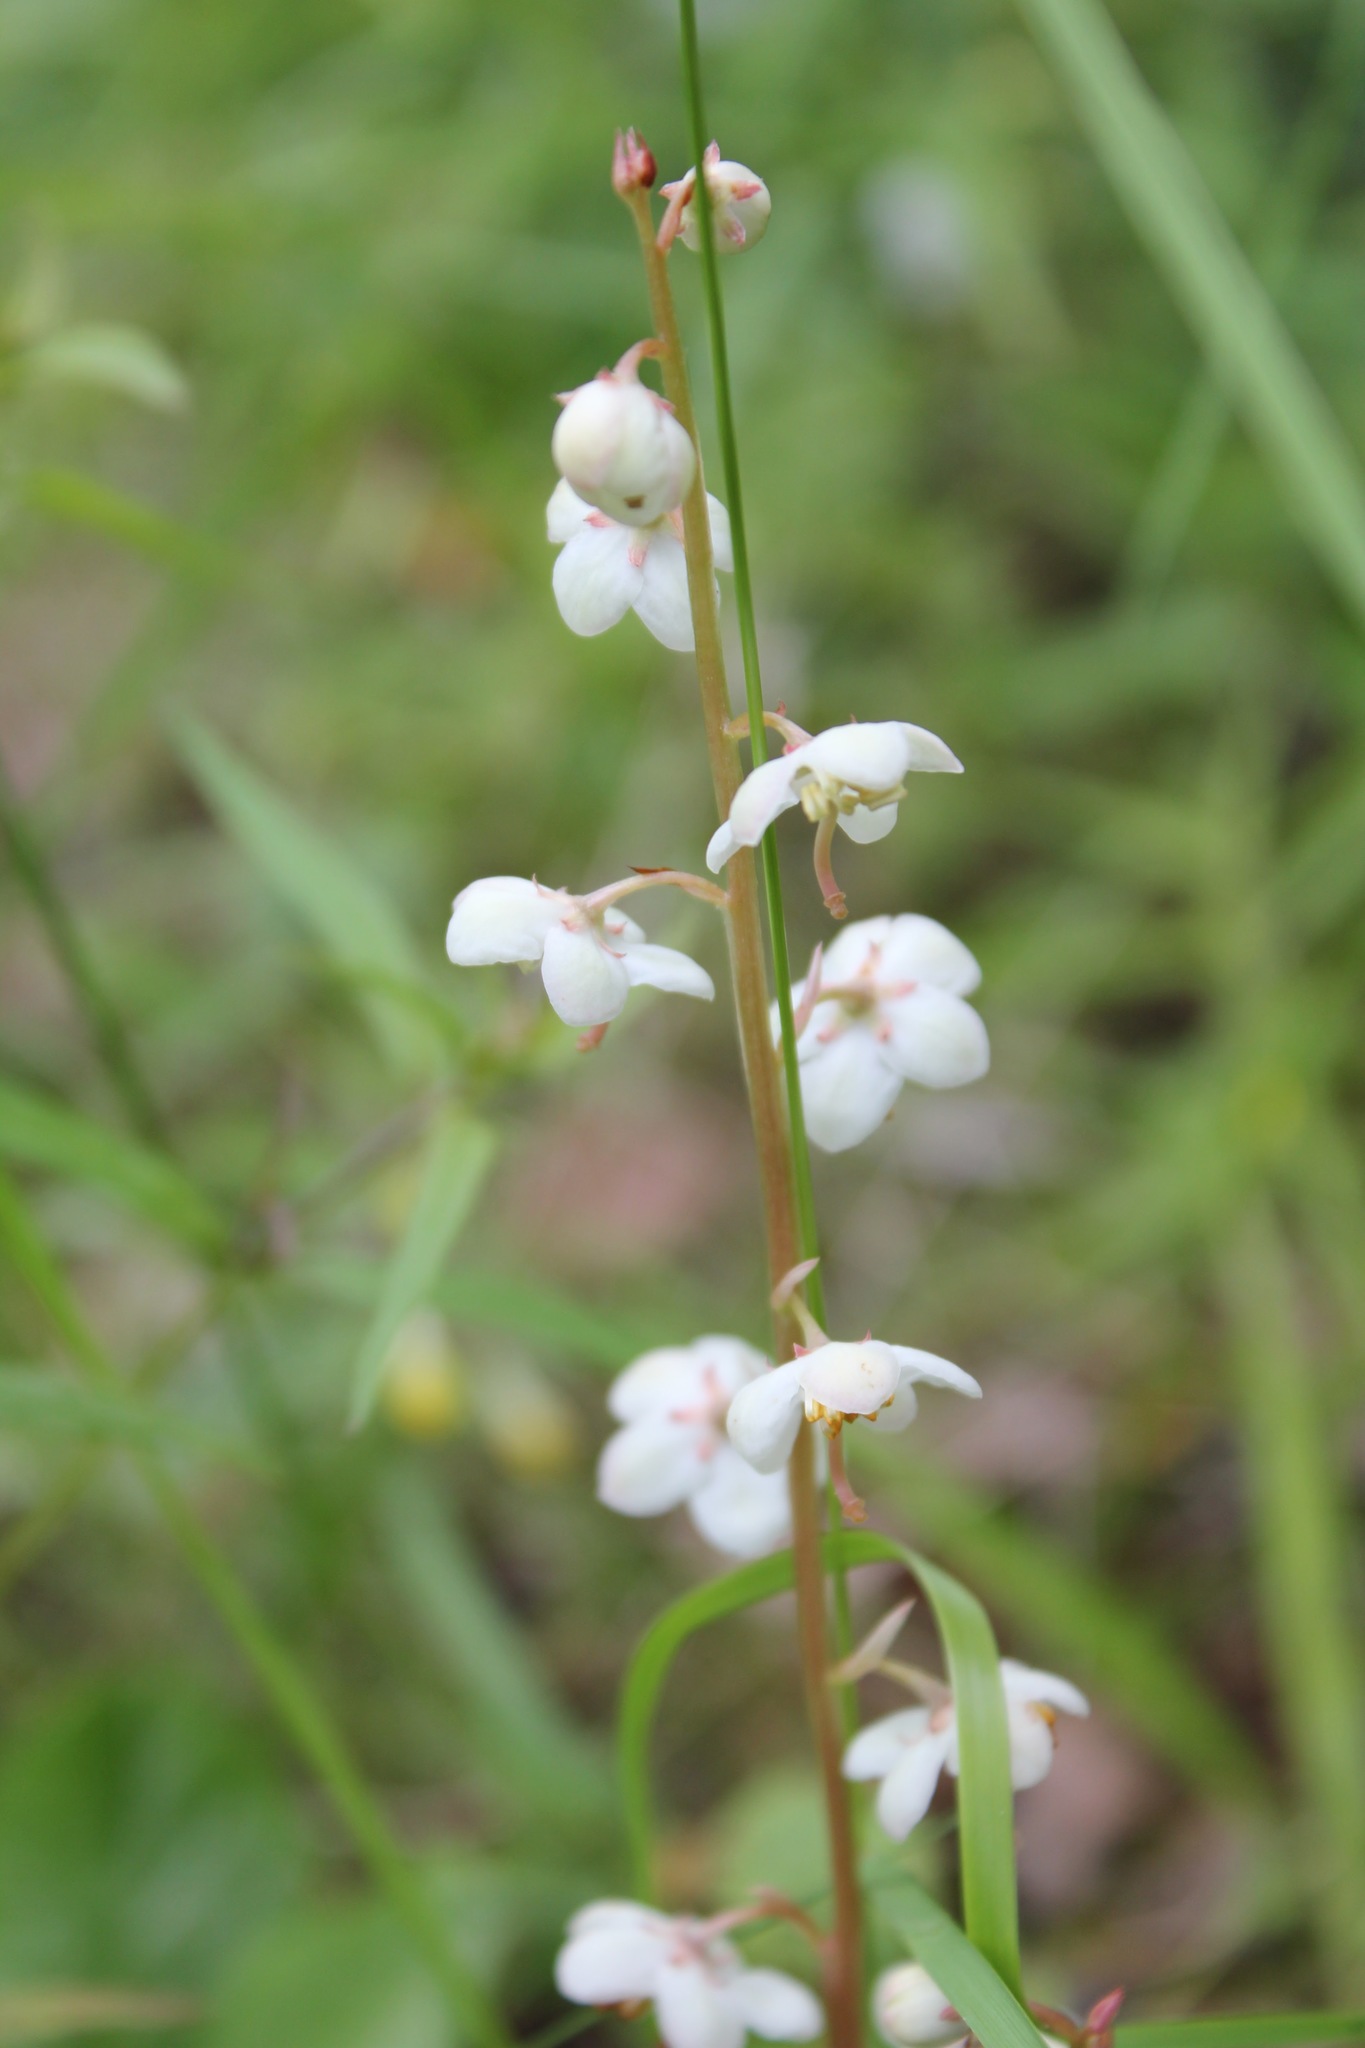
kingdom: Plantae
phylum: Tracheophyta
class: Magnoliopsida
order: Ericales
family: Ericaceae
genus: Pyrola
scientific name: Pyrola rotundifolia
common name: Round-leaved wintergreen
